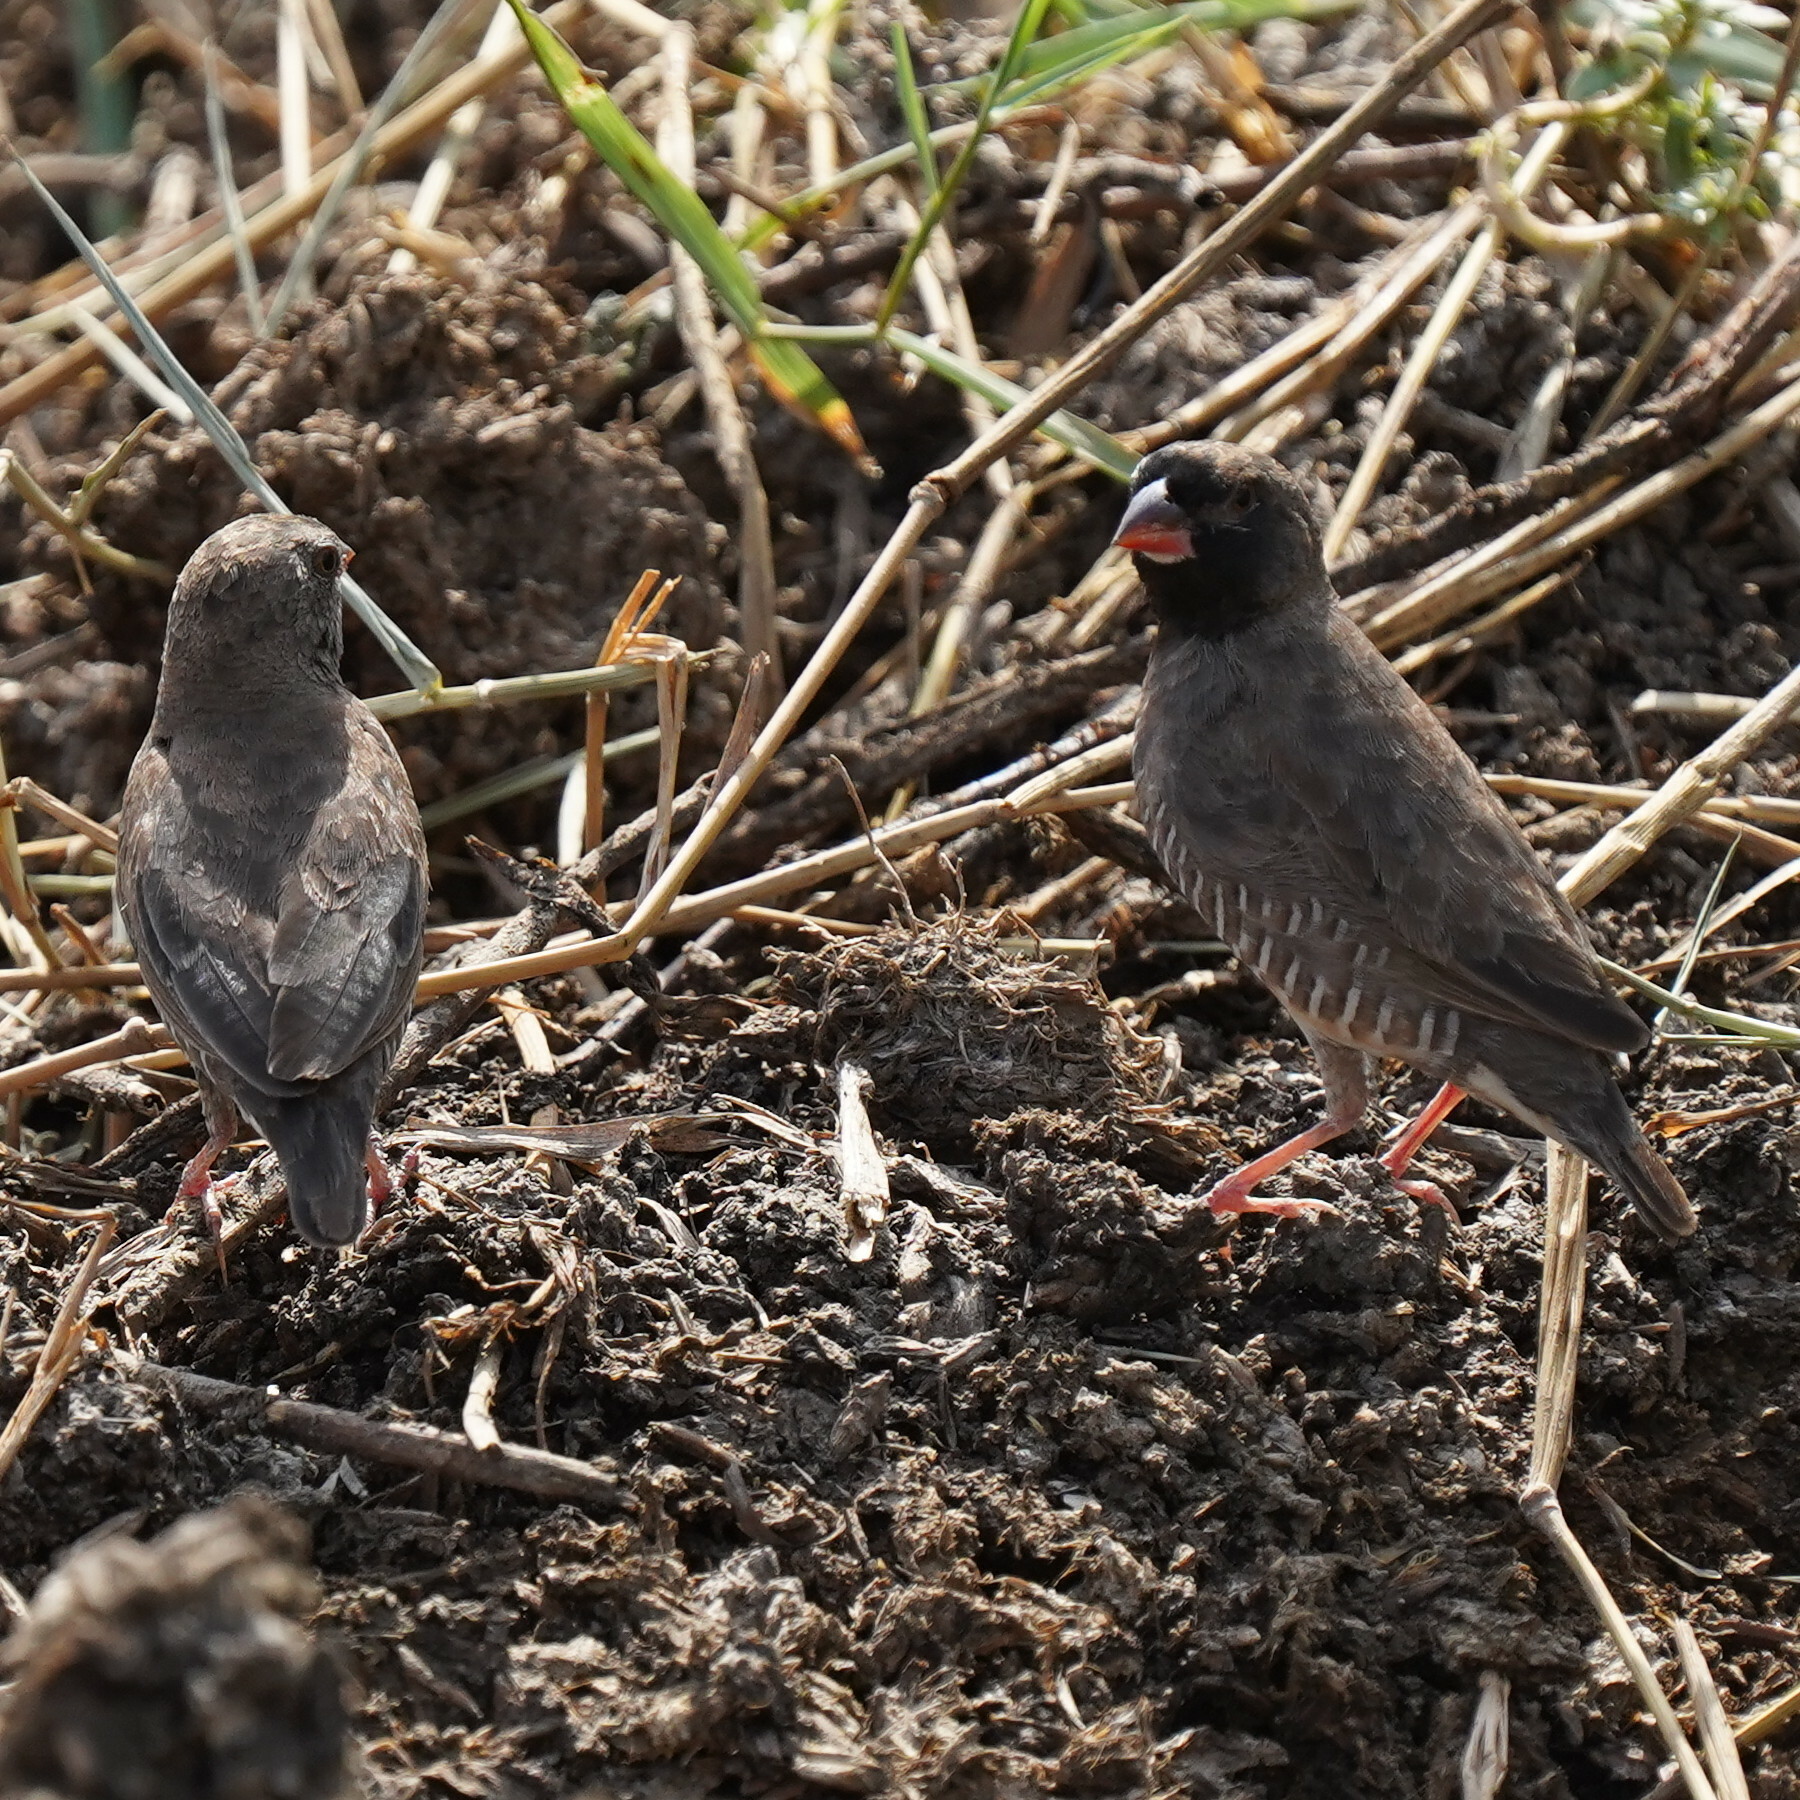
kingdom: Animalia
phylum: Chordata
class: Aves
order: Passeriformes
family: Estrildidae
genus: Ortygospiza
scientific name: Ortygospiza atricollis
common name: Quailfinch
